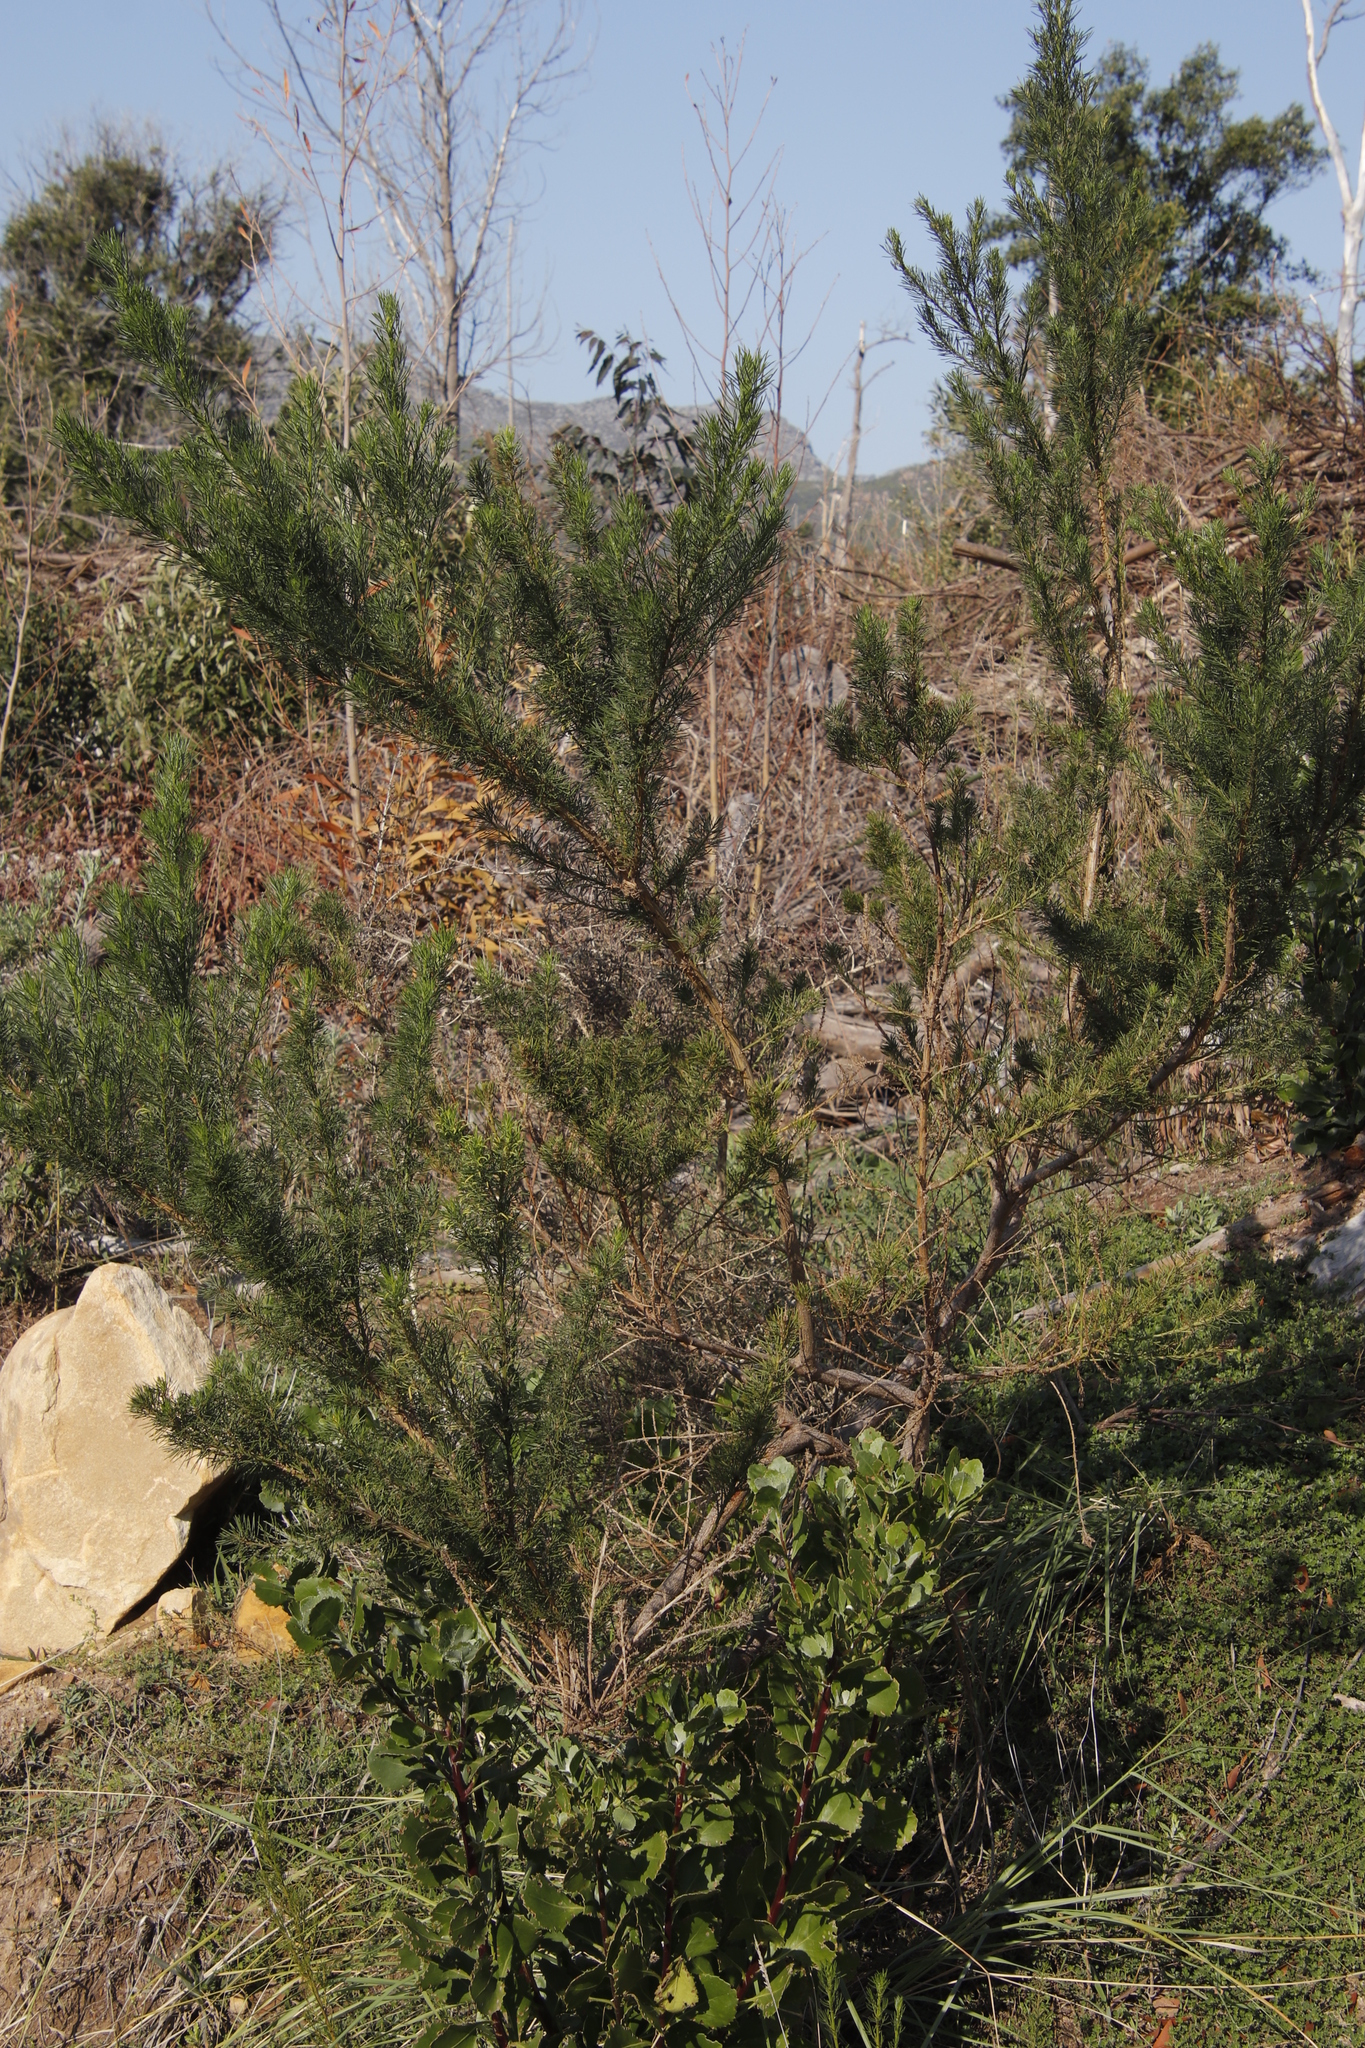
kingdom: Plantae
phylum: Tracheophyta
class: Magnoliopsida
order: Fabales
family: Fabaceae
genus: Psoralea
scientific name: Psoralea pinnata
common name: African scurfpea
